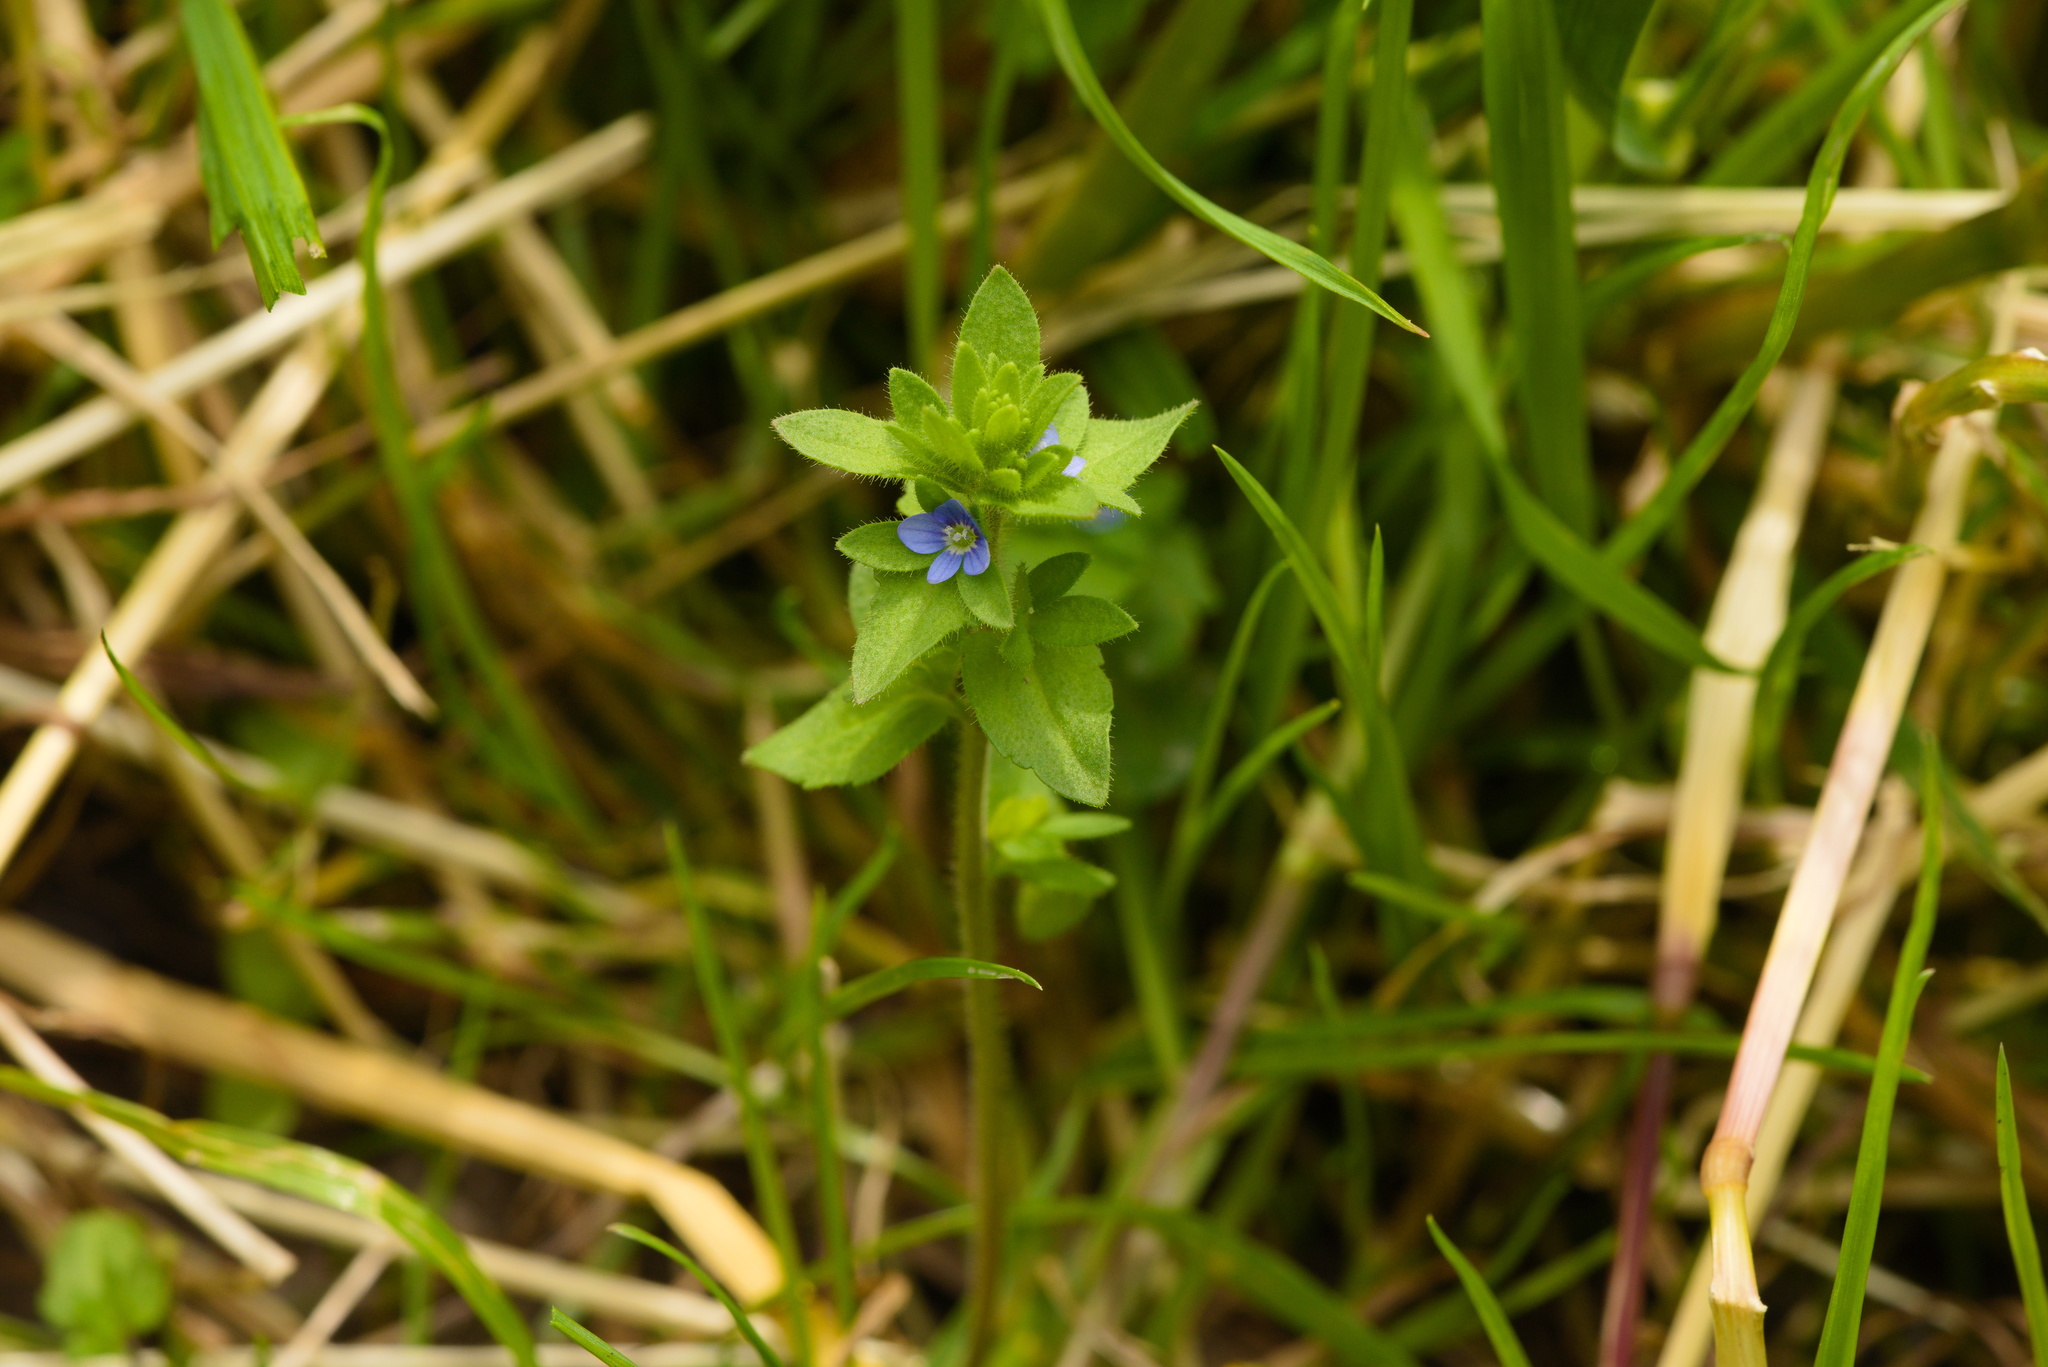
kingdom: Plantae
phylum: Tracheophyta
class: Magnoliopsida
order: Lamiales
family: Plantaginaceae
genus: Veronica
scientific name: Veronica arvensis
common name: Corn speedwell
